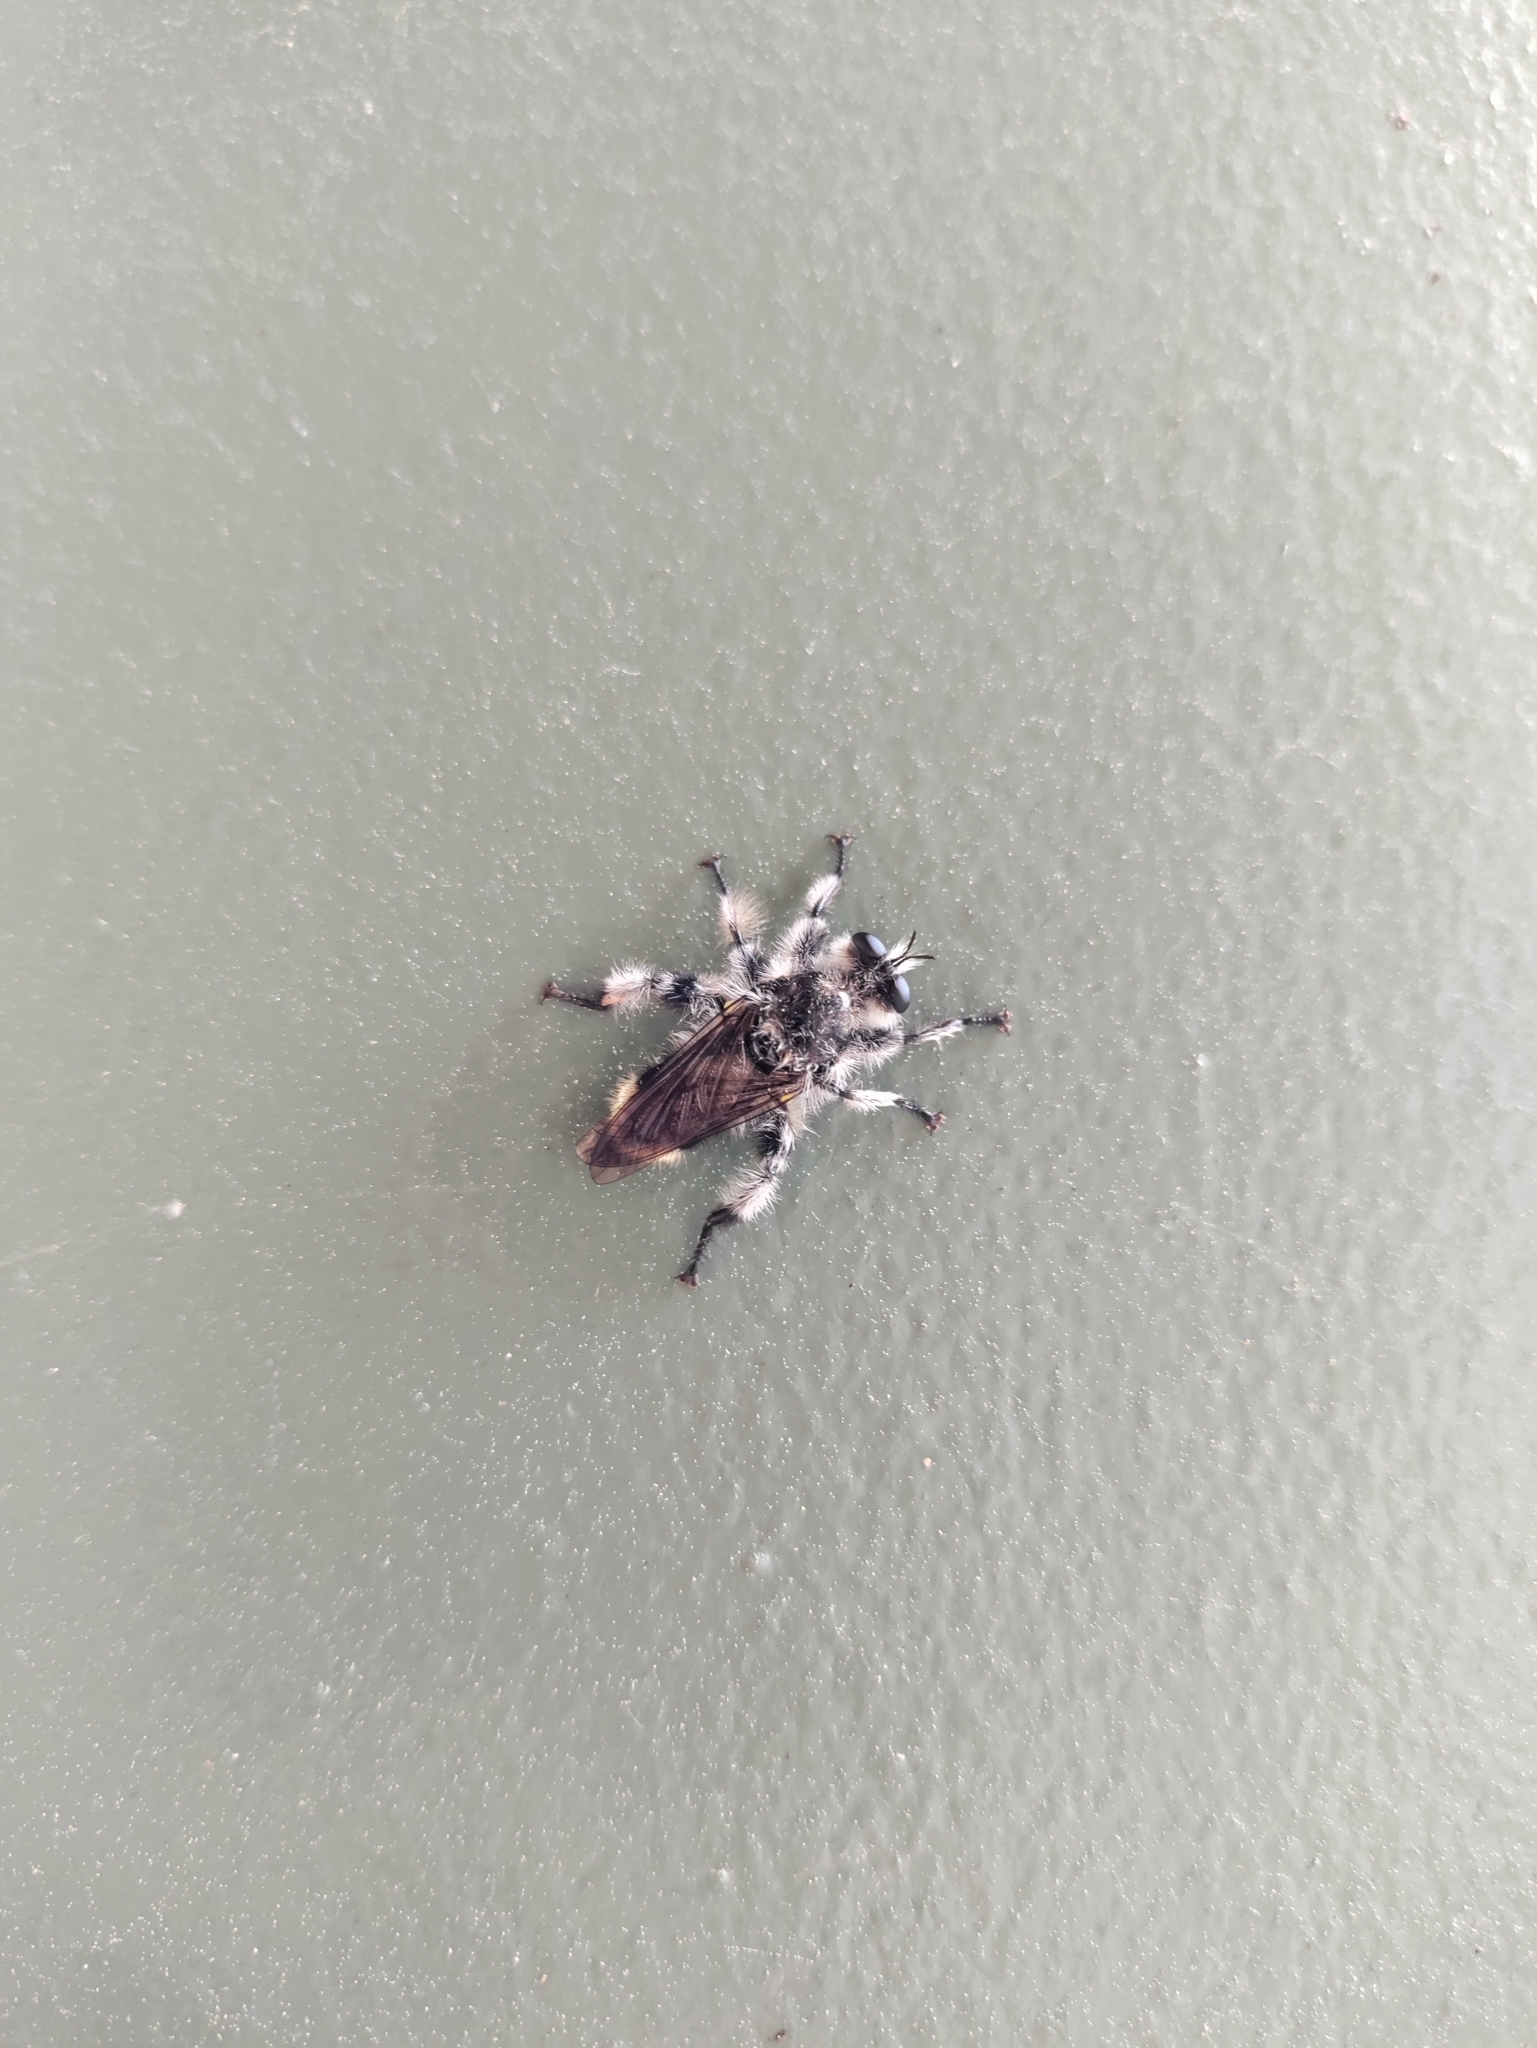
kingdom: Animalia
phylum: Arthropoda
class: Insecta
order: Diptera
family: Asilidae
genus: Laphria
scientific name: Laphria cinerea
